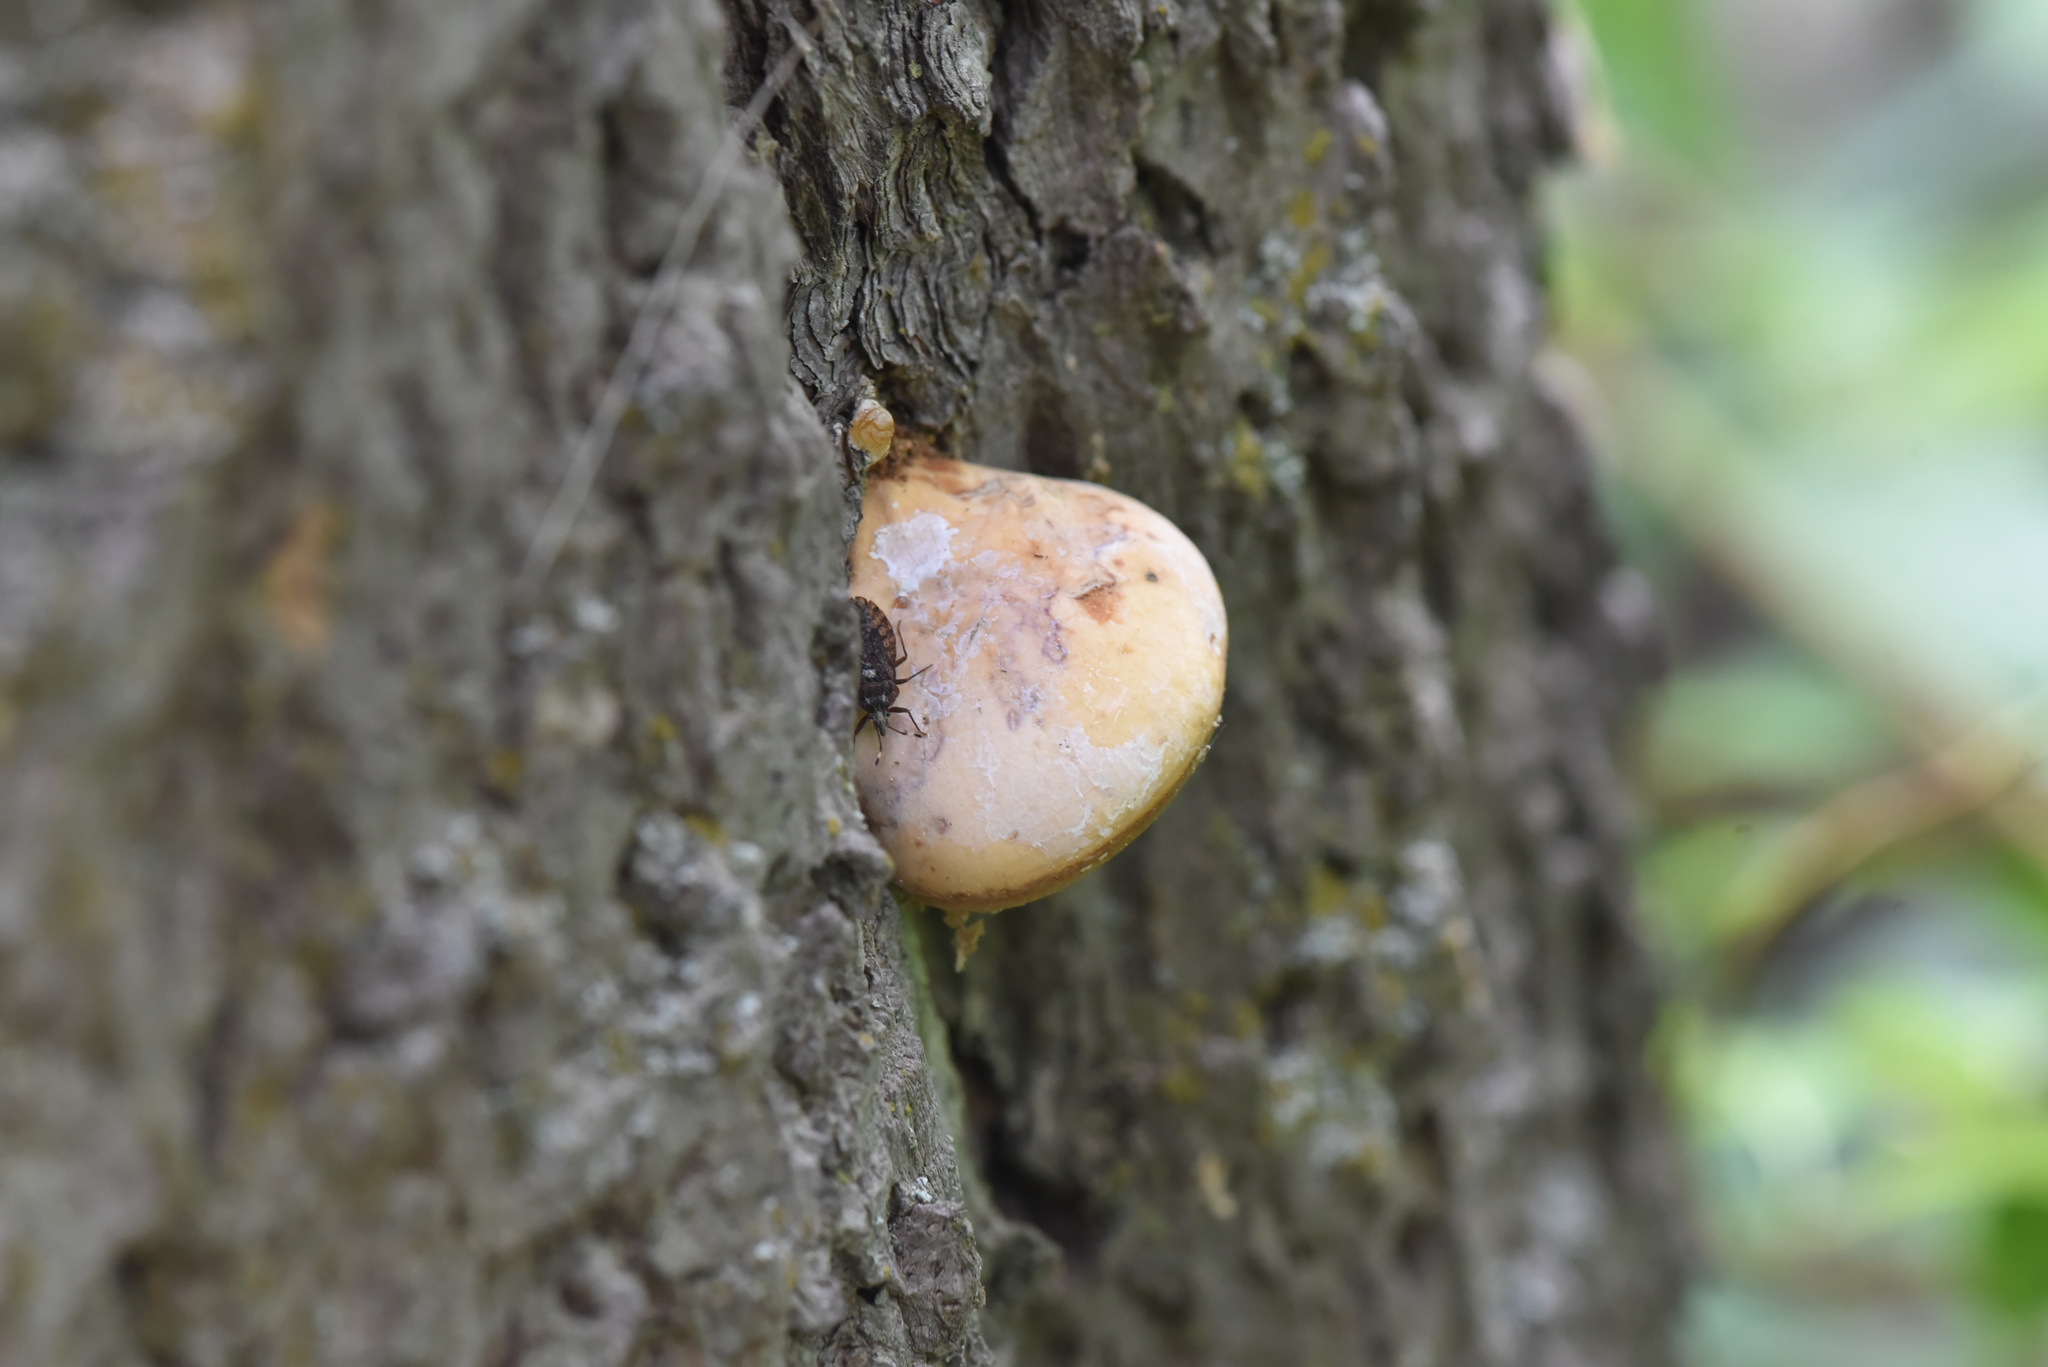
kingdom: Fungi
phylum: Basidiomycota
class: Agaricomycetes
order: Polyporales
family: Polyporaceae
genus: Cryptoporus
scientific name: Cryptoporus volvatus
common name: Veiled polypore
